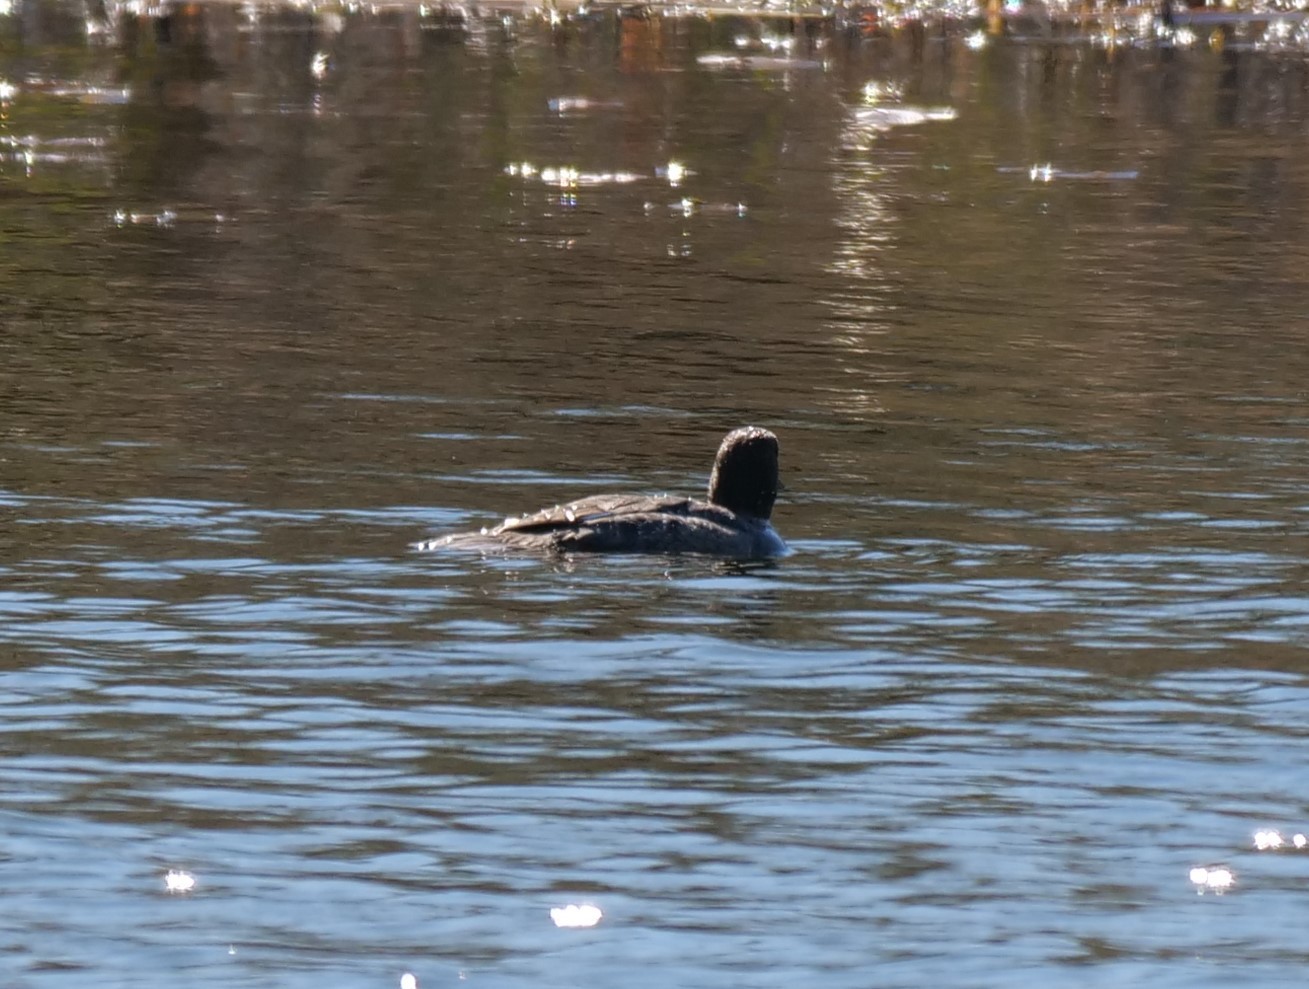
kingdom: Animalia
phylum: Chordata
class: Aves
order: Anseriformes
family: Anatidae
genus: Bucephala
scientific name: Bucephala clangula
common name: Common goldeneye
